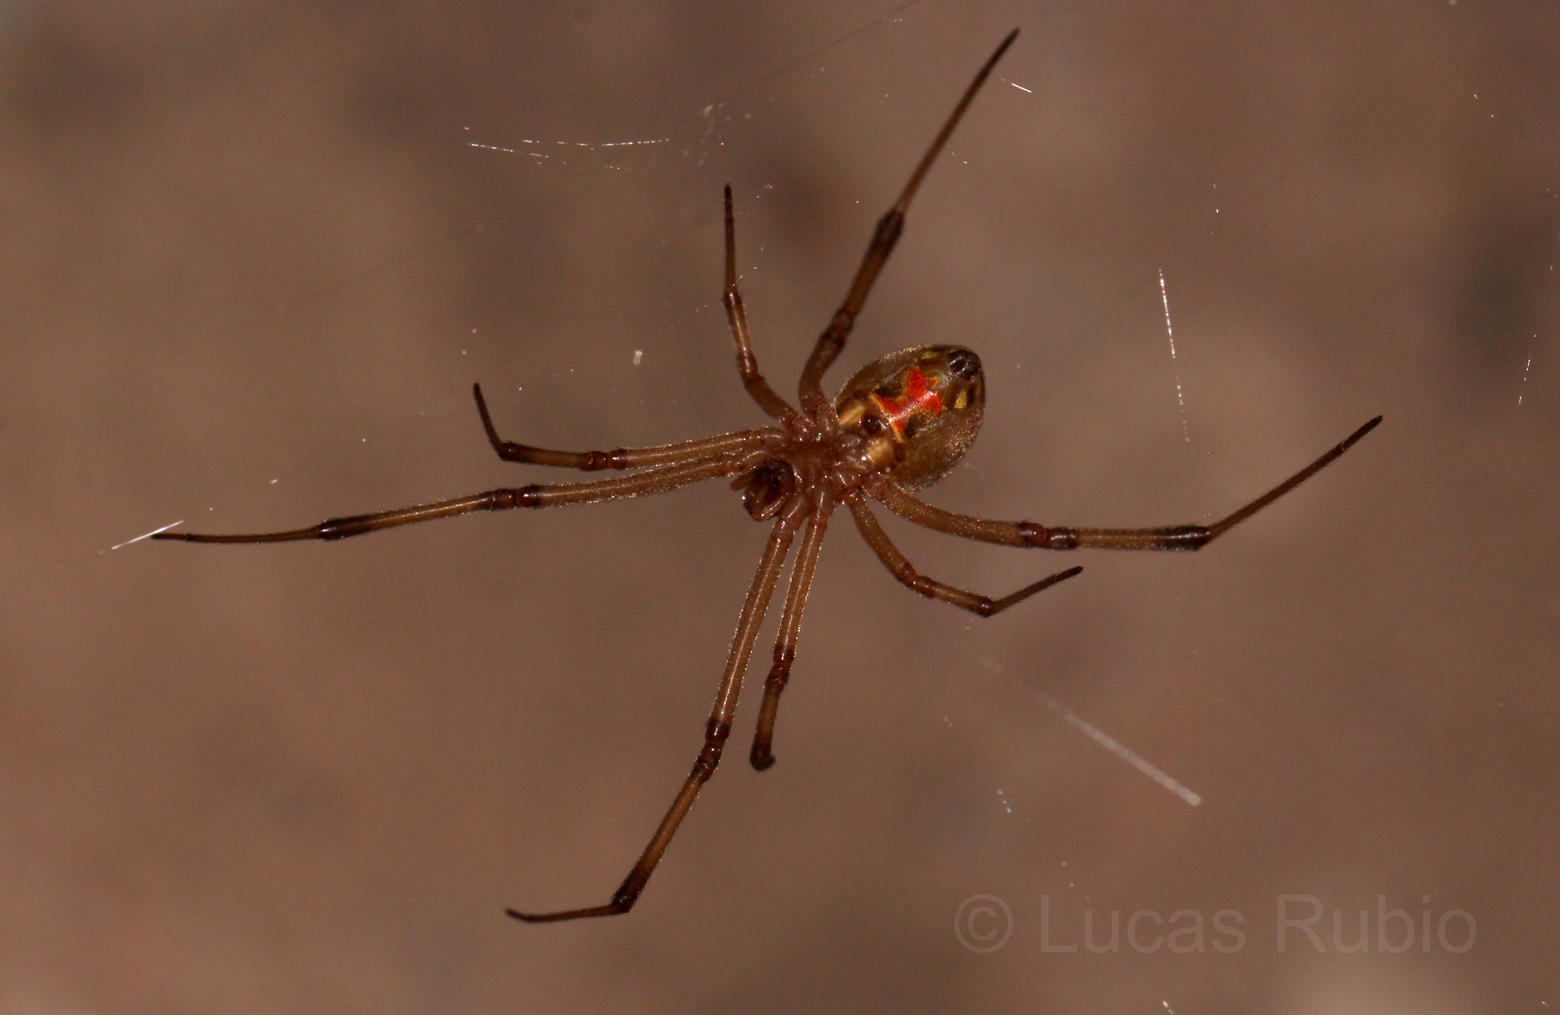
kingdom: Animalia
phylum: Arthropoda
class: Arachnida
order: Araneae
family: Theridiidae
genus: Latrodectus
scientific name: Latrodectus geometricus
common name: Brown widow spider
